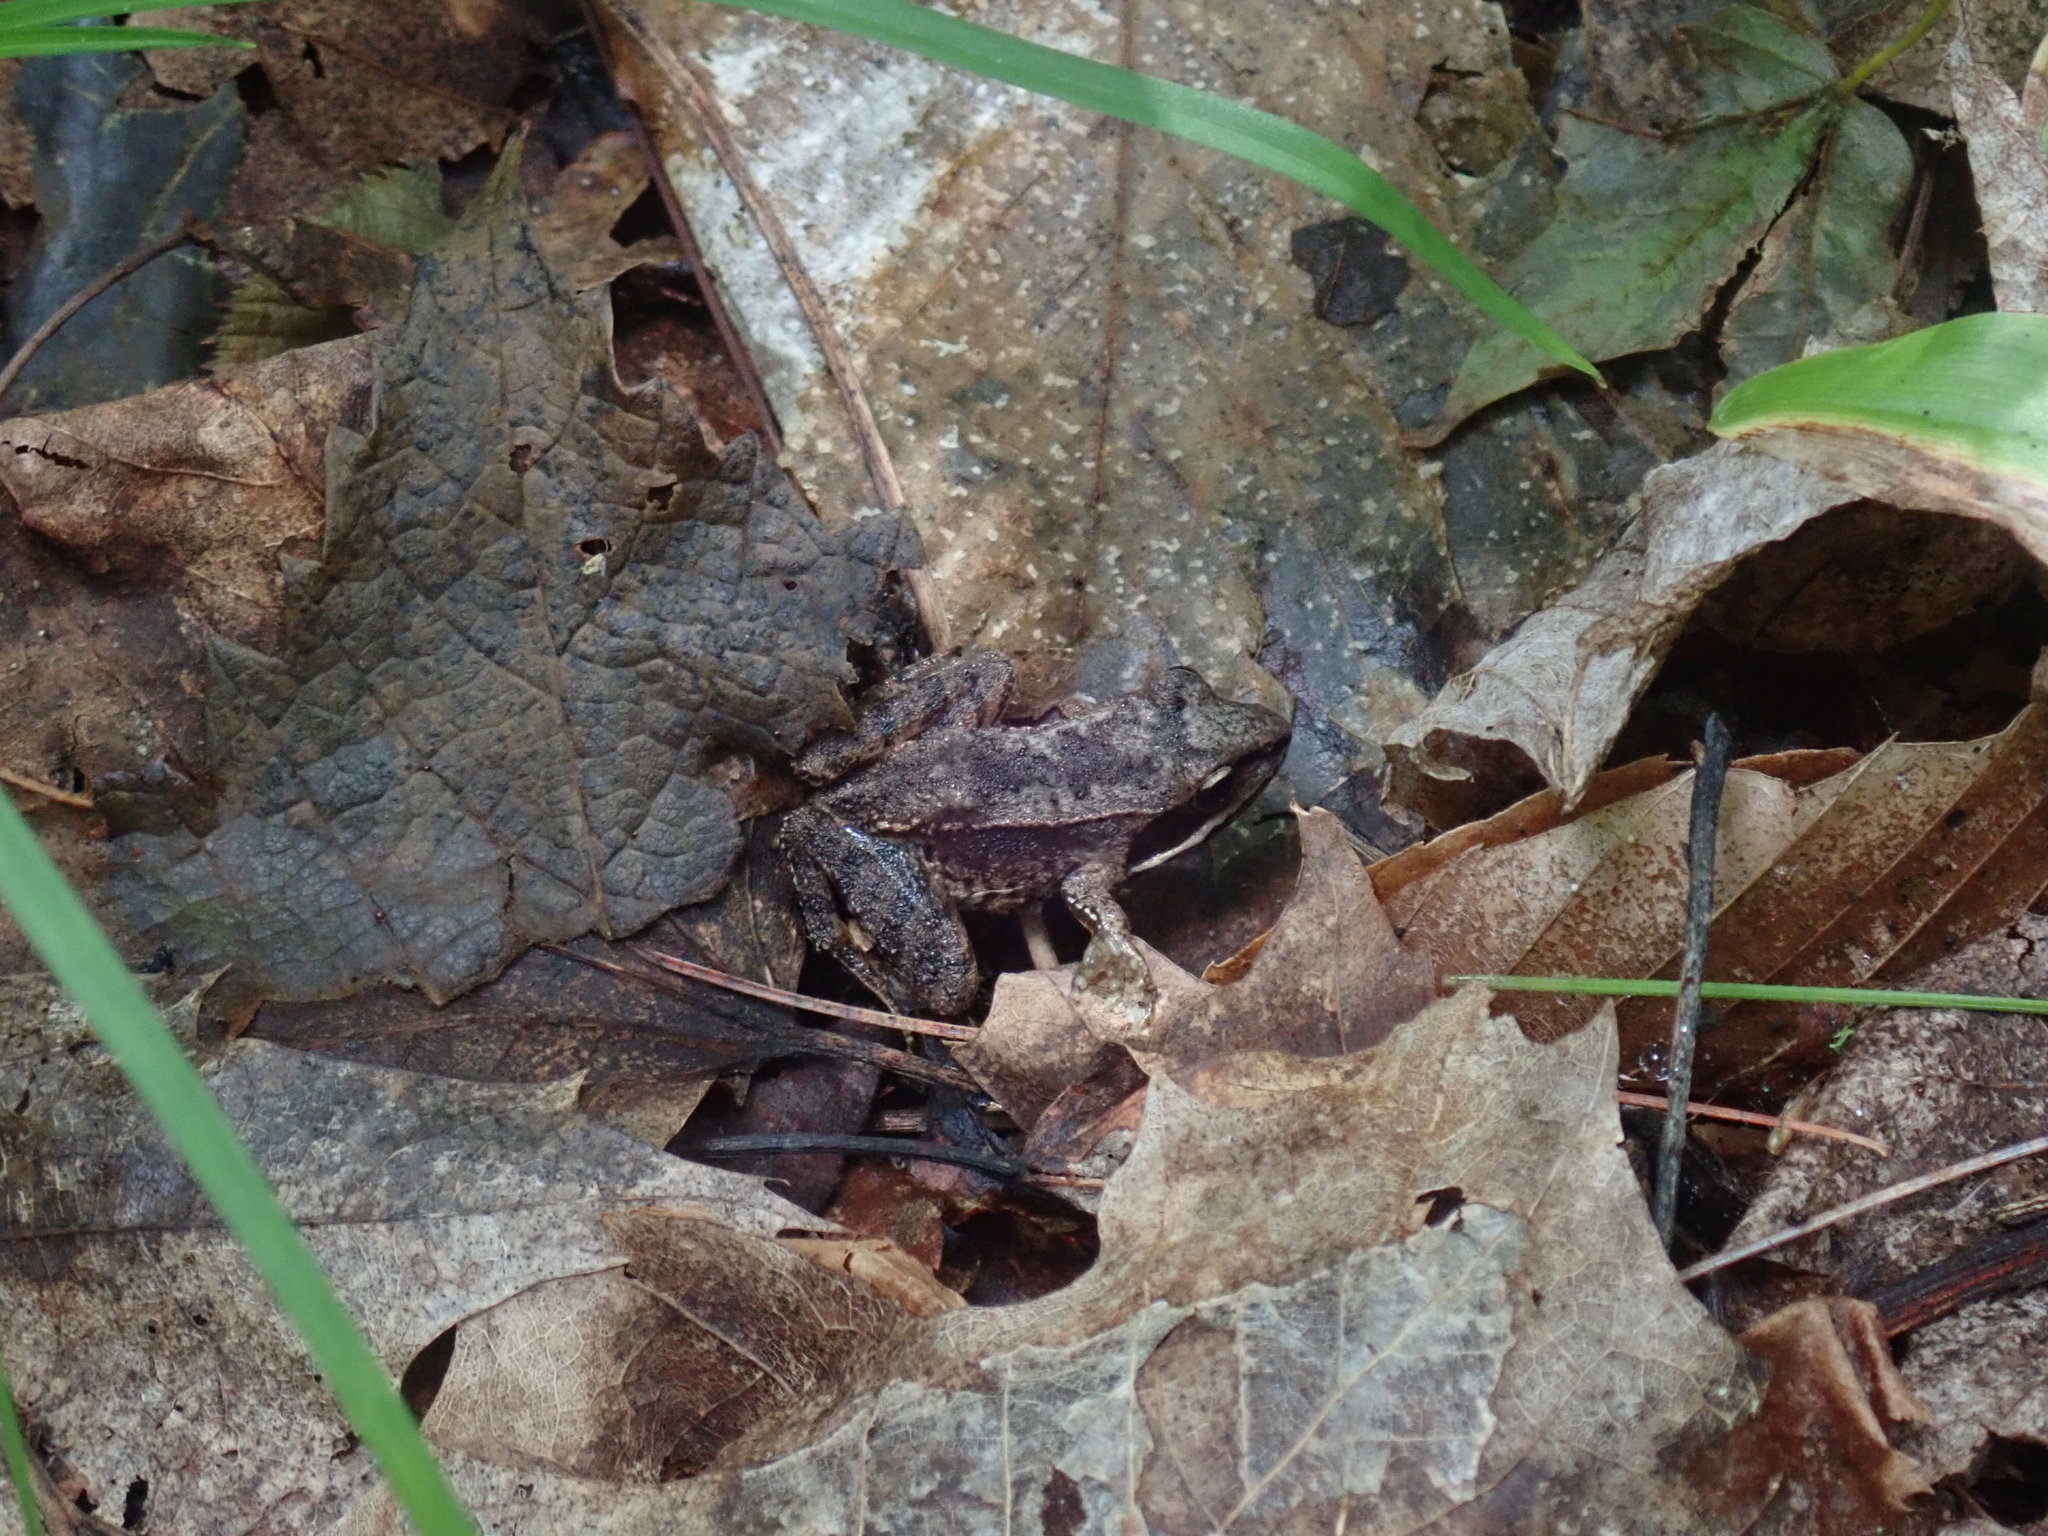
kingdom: Animalia
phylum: Chordata
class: Amphibia
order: Anura
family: Ranidae
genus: Lithobates
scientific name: Lithobates sylvaticus
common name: Wood frog
